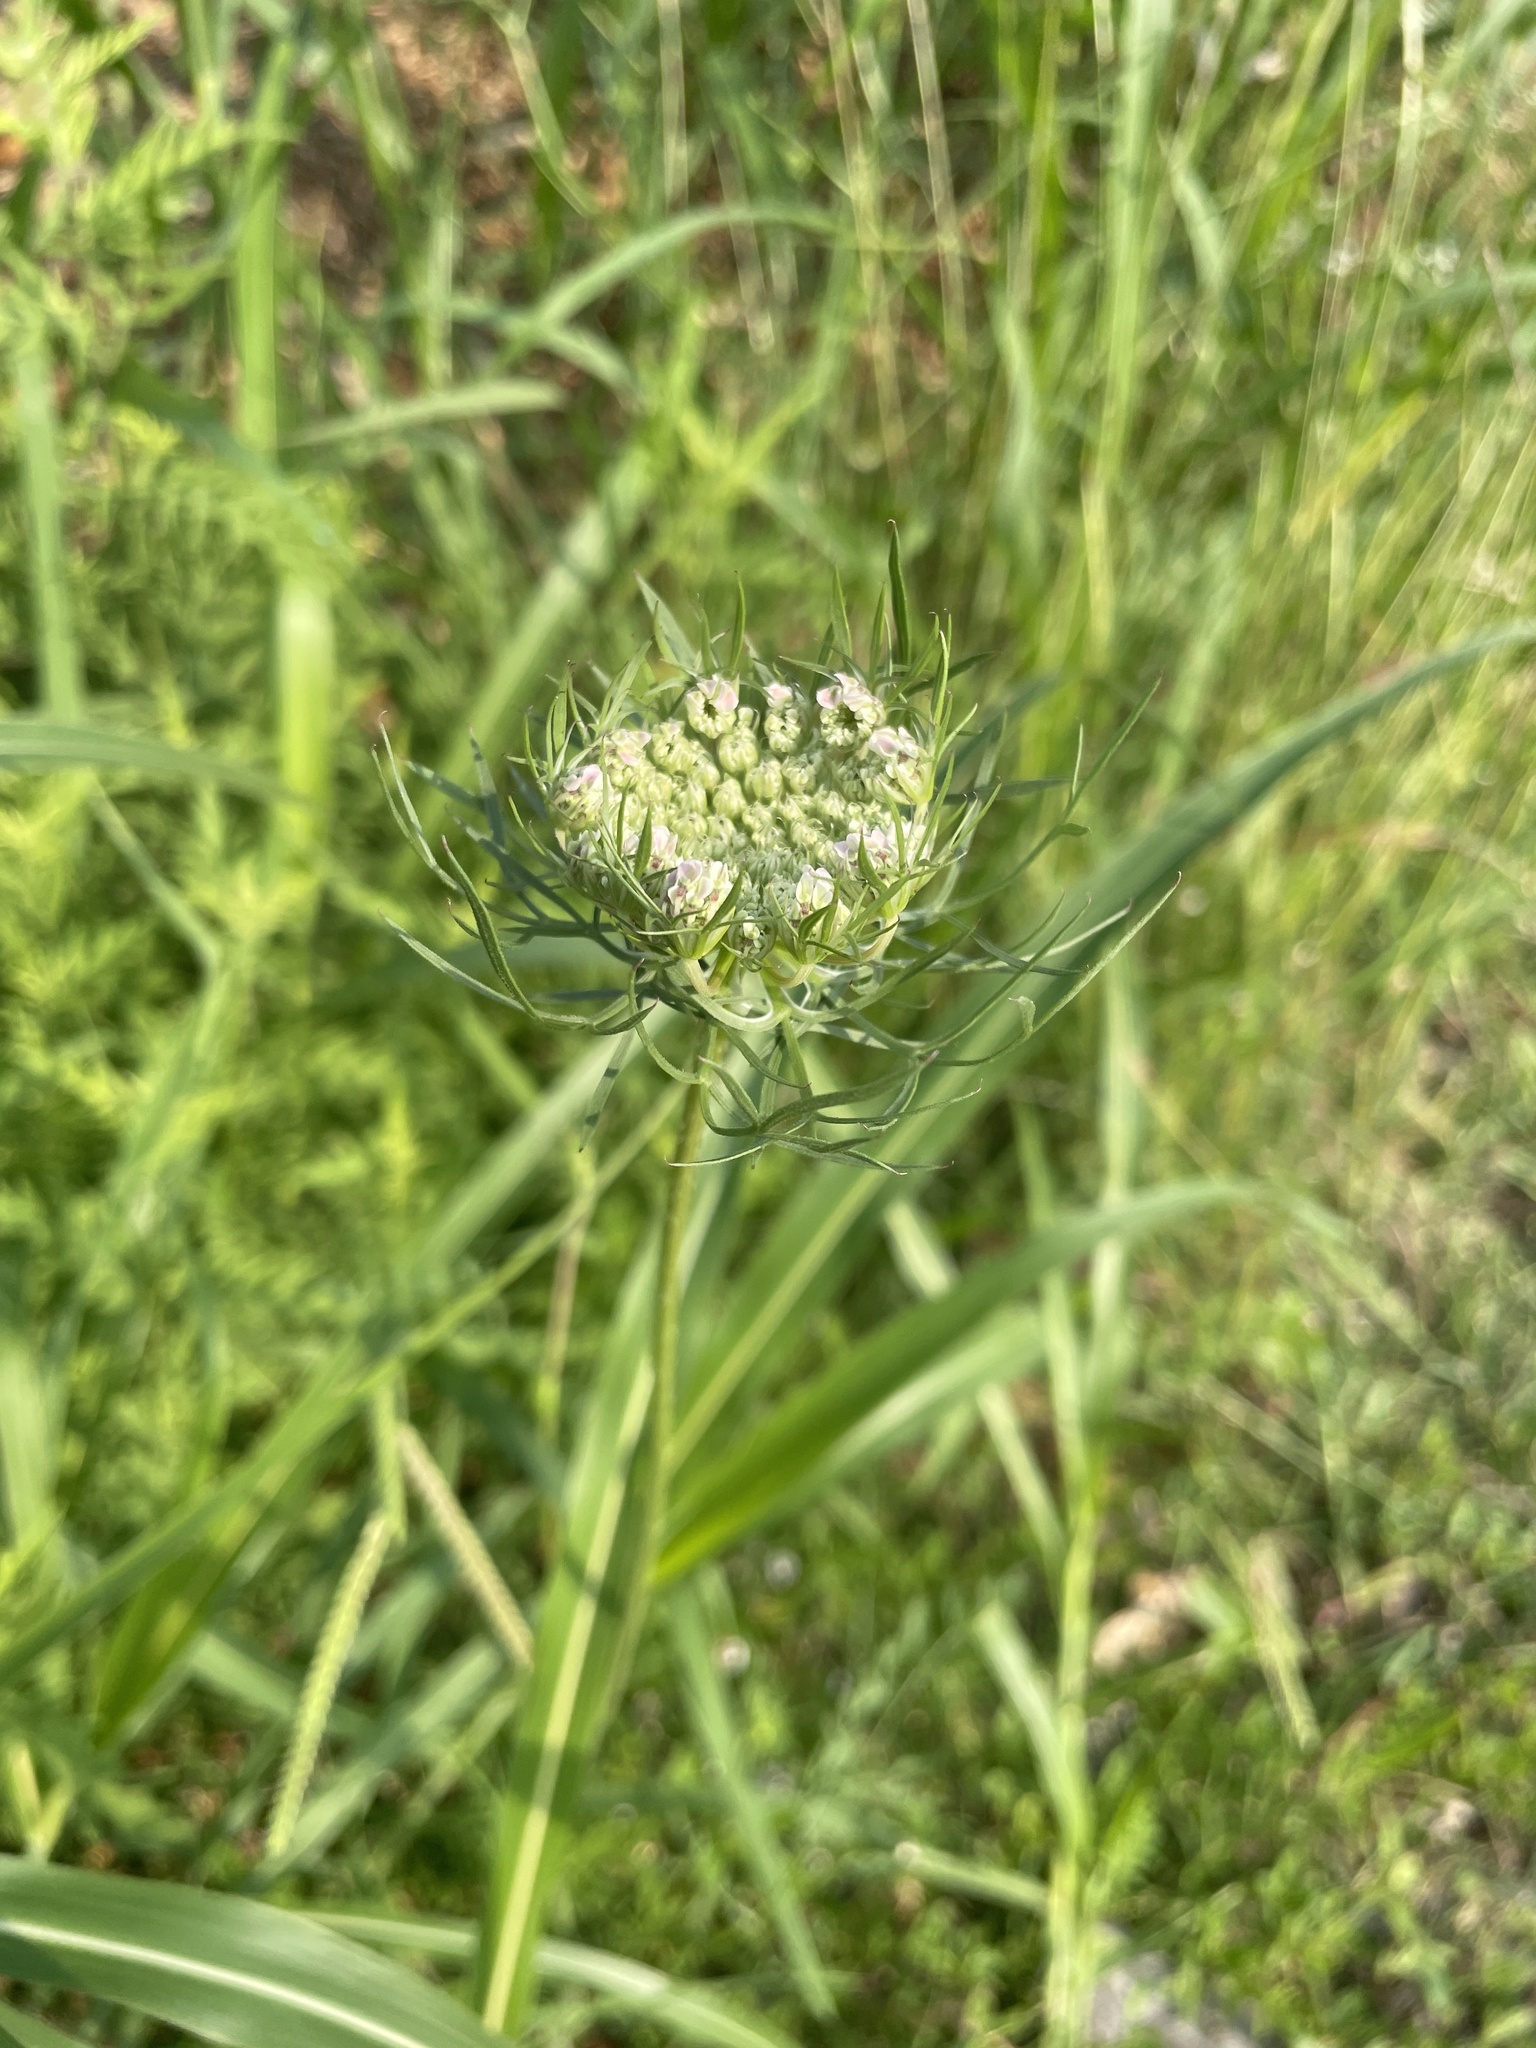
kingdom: Plantae
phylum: Tracheophyta
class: Magnoliopsida
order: Apiales
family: Apiaceae
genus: Daucus
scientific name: Daucus carota
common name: Wild carrot
